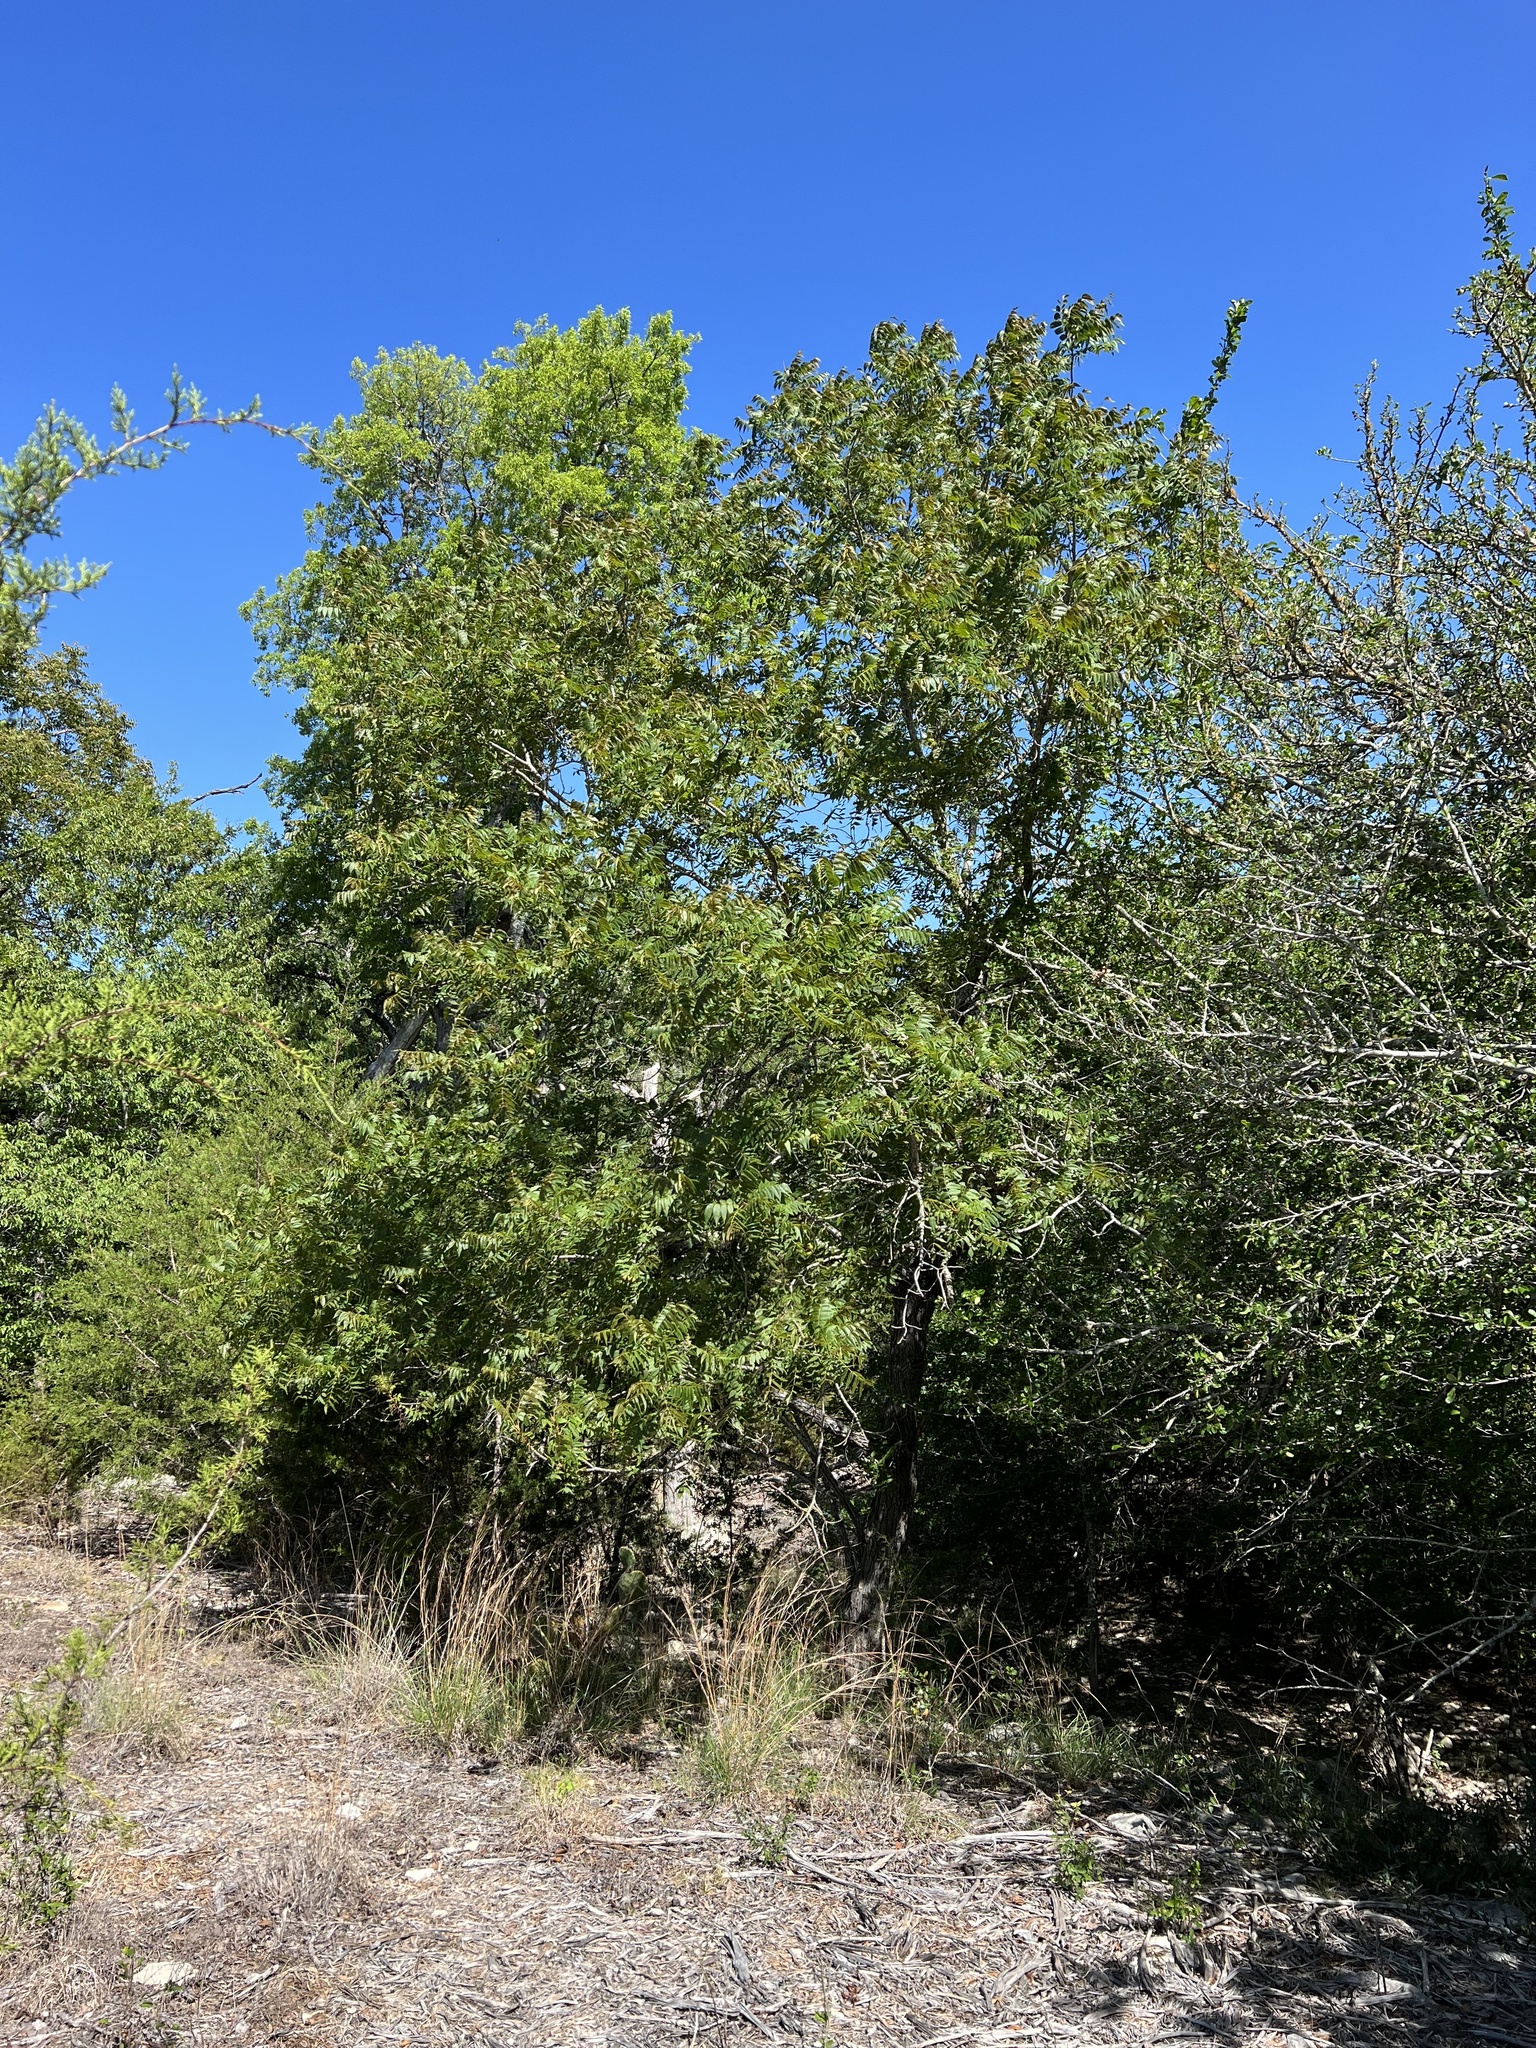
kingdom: Plantae
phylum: Tracheophyta
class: Magnoliopsida
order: Fagales
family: Juglandaceae
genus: Juglans
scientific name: Juglans major
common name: Arizona walnut
